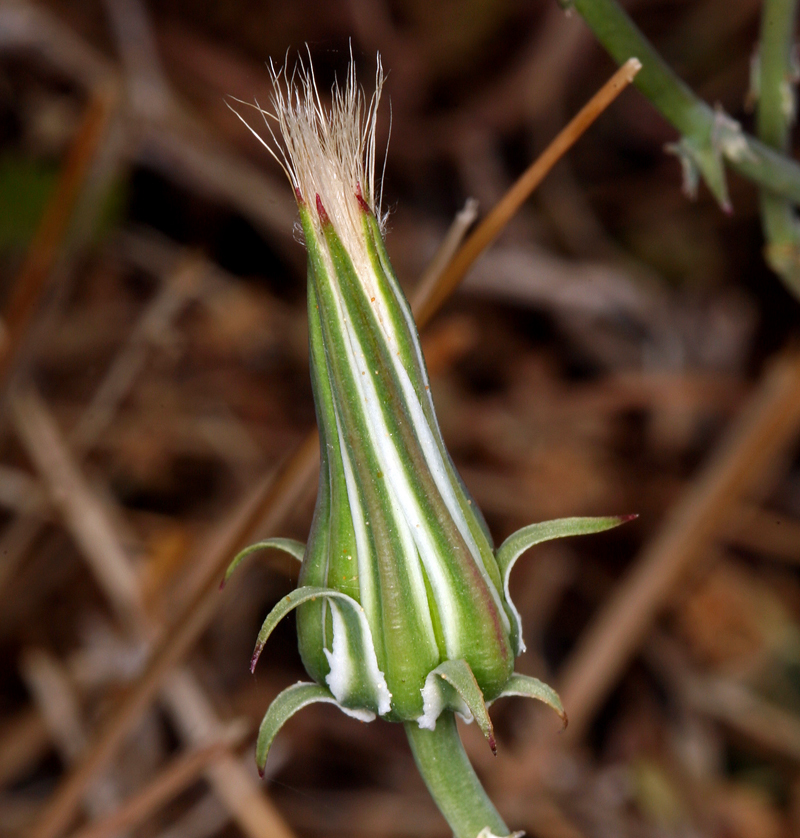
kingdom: Plantae
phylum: Tracheophyta
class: Magnoliopsida
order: Asterales
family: Asteraceae
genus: Rafinesquia
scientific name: Rafinesquia neomexicana
